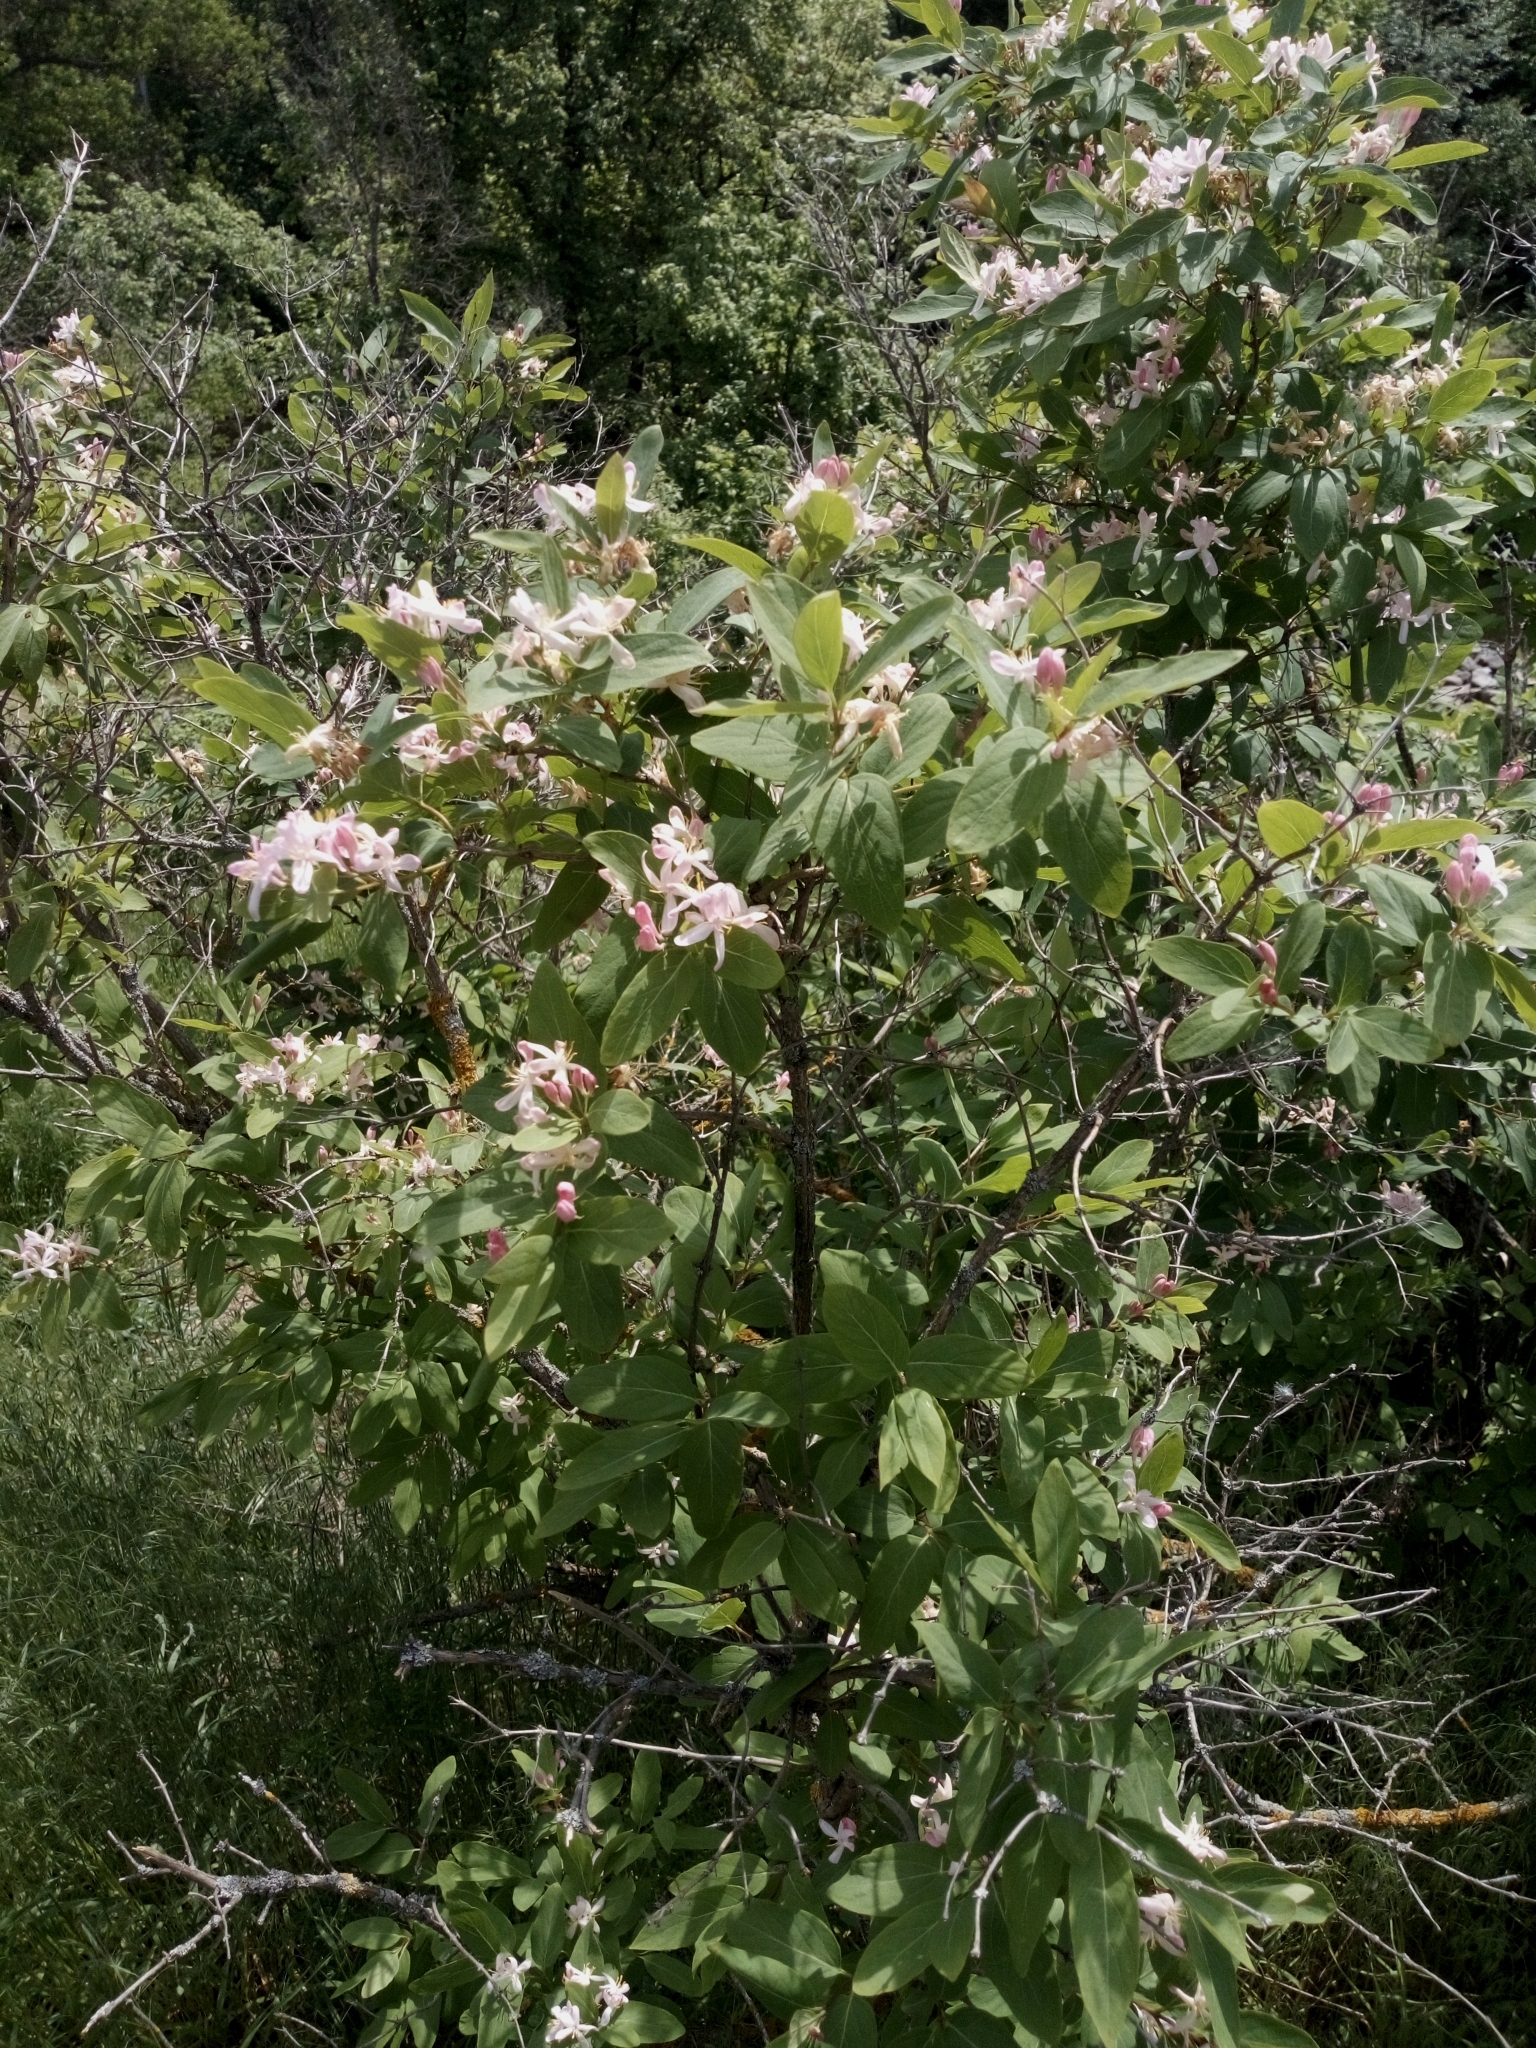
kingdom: Plantae
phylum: Tracheophyta
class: Magnoliopsida
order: Dipsacales
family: Caprifoliaceae
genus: Lonicera
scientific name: Lonicera tatarica
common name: Tatarian honeysuckle
